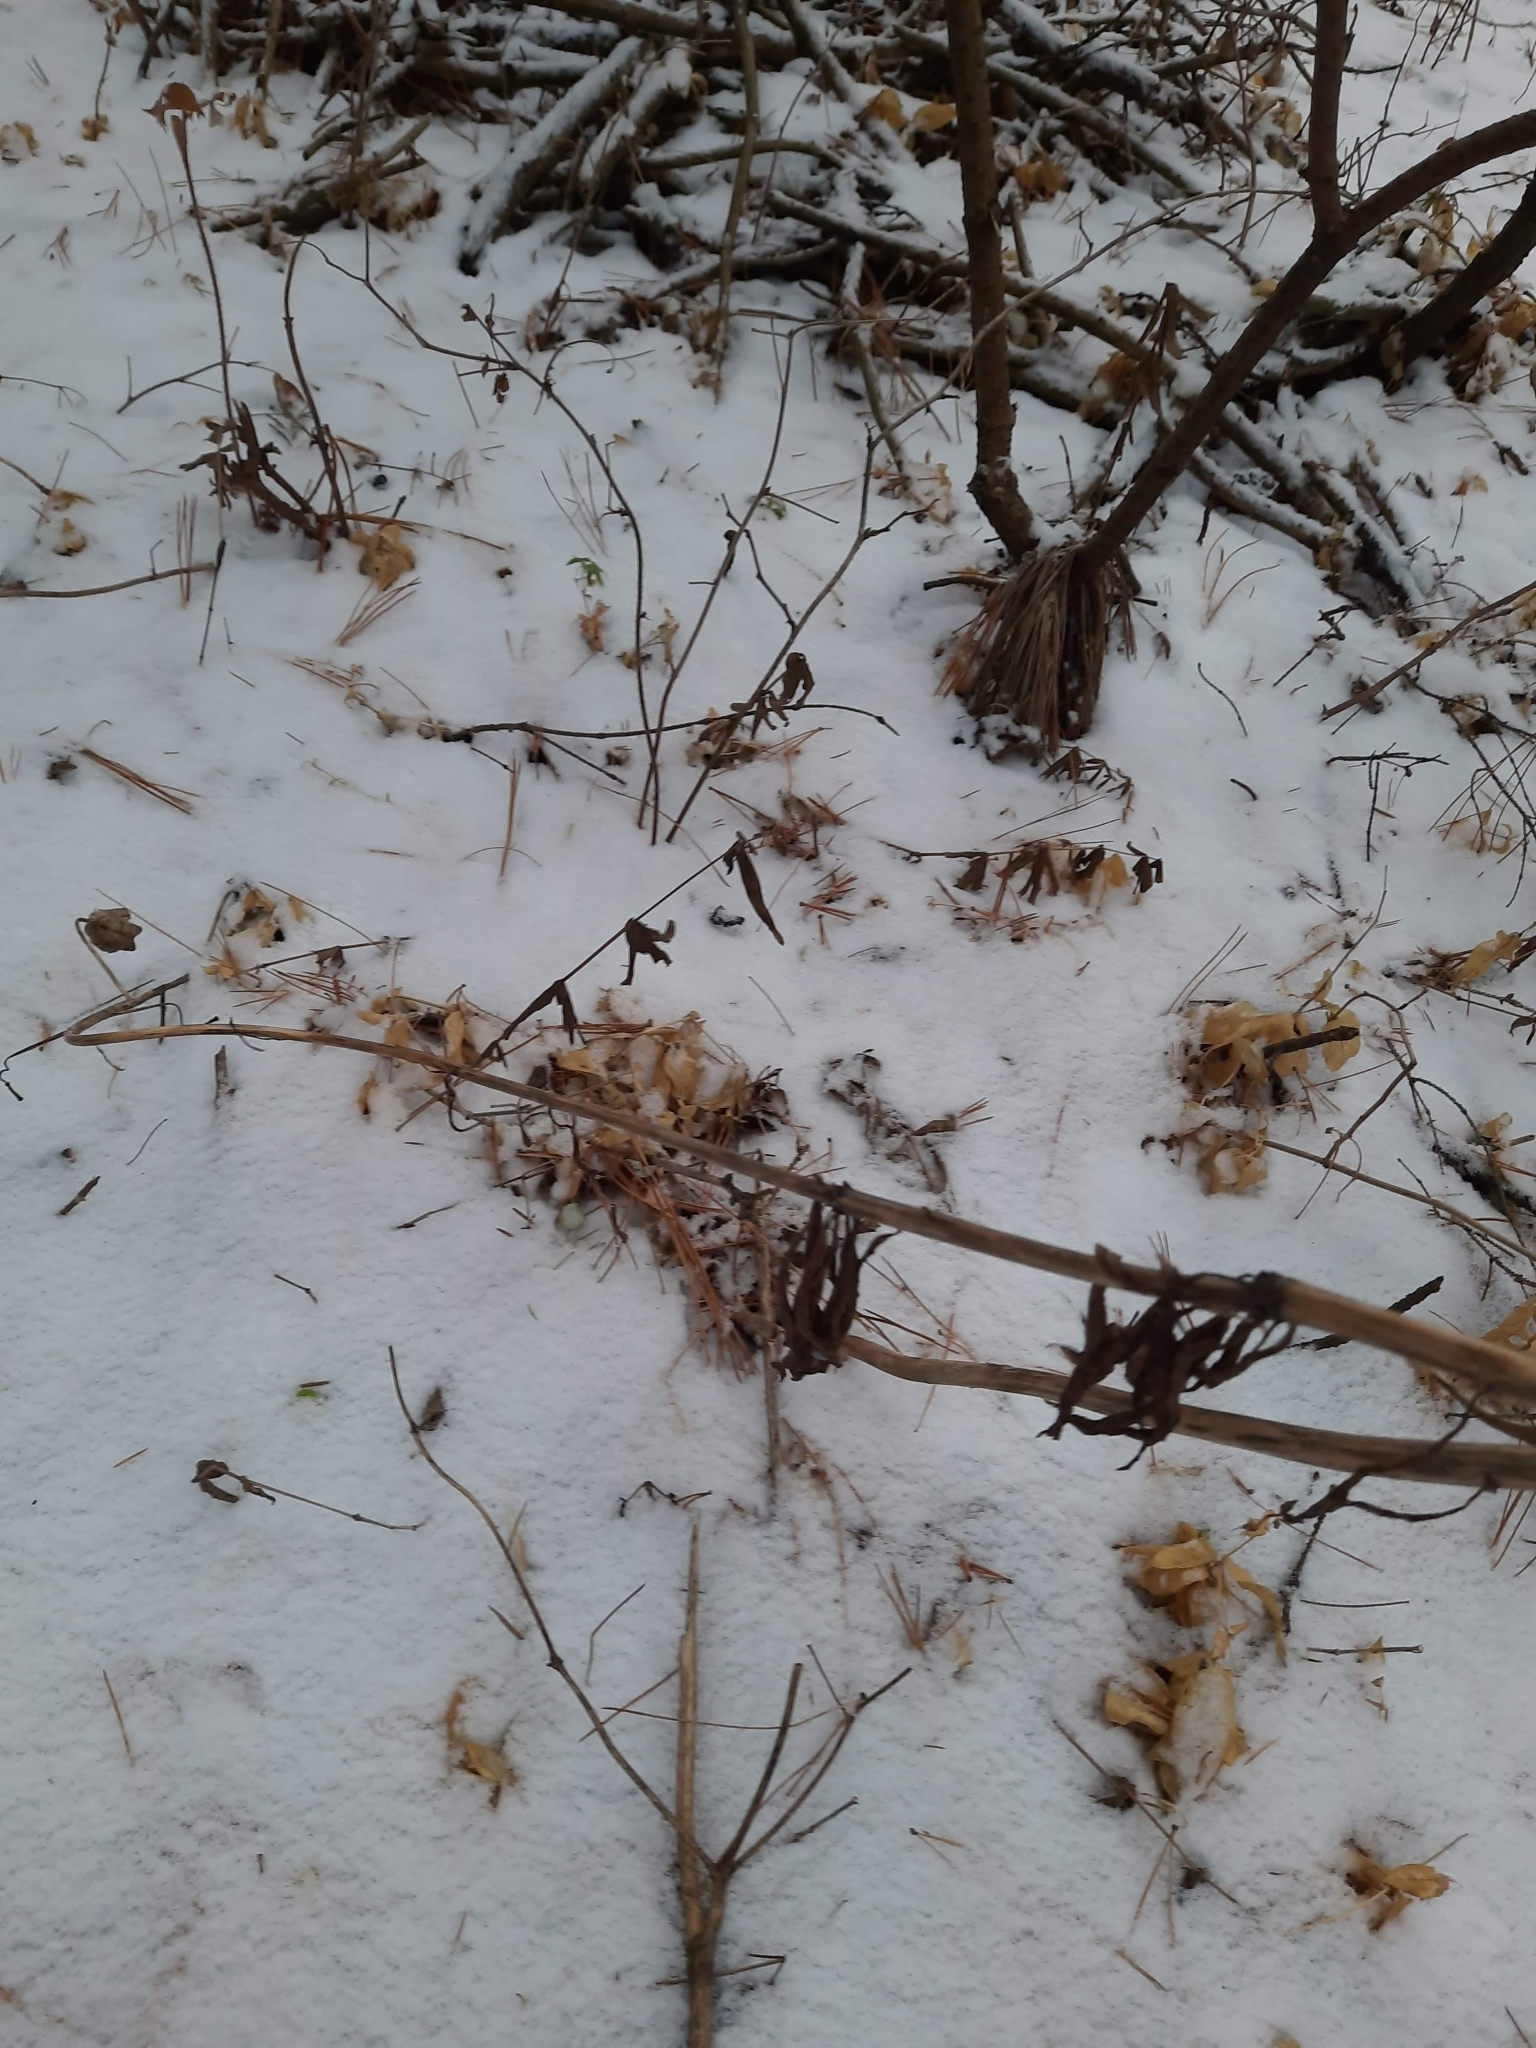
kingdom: Plantae
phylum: Tracheophyta
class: Liliopsida
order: Liliales
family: Liliaceae
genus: Lilium
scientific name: Lilium martagon
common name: Martagon lily
